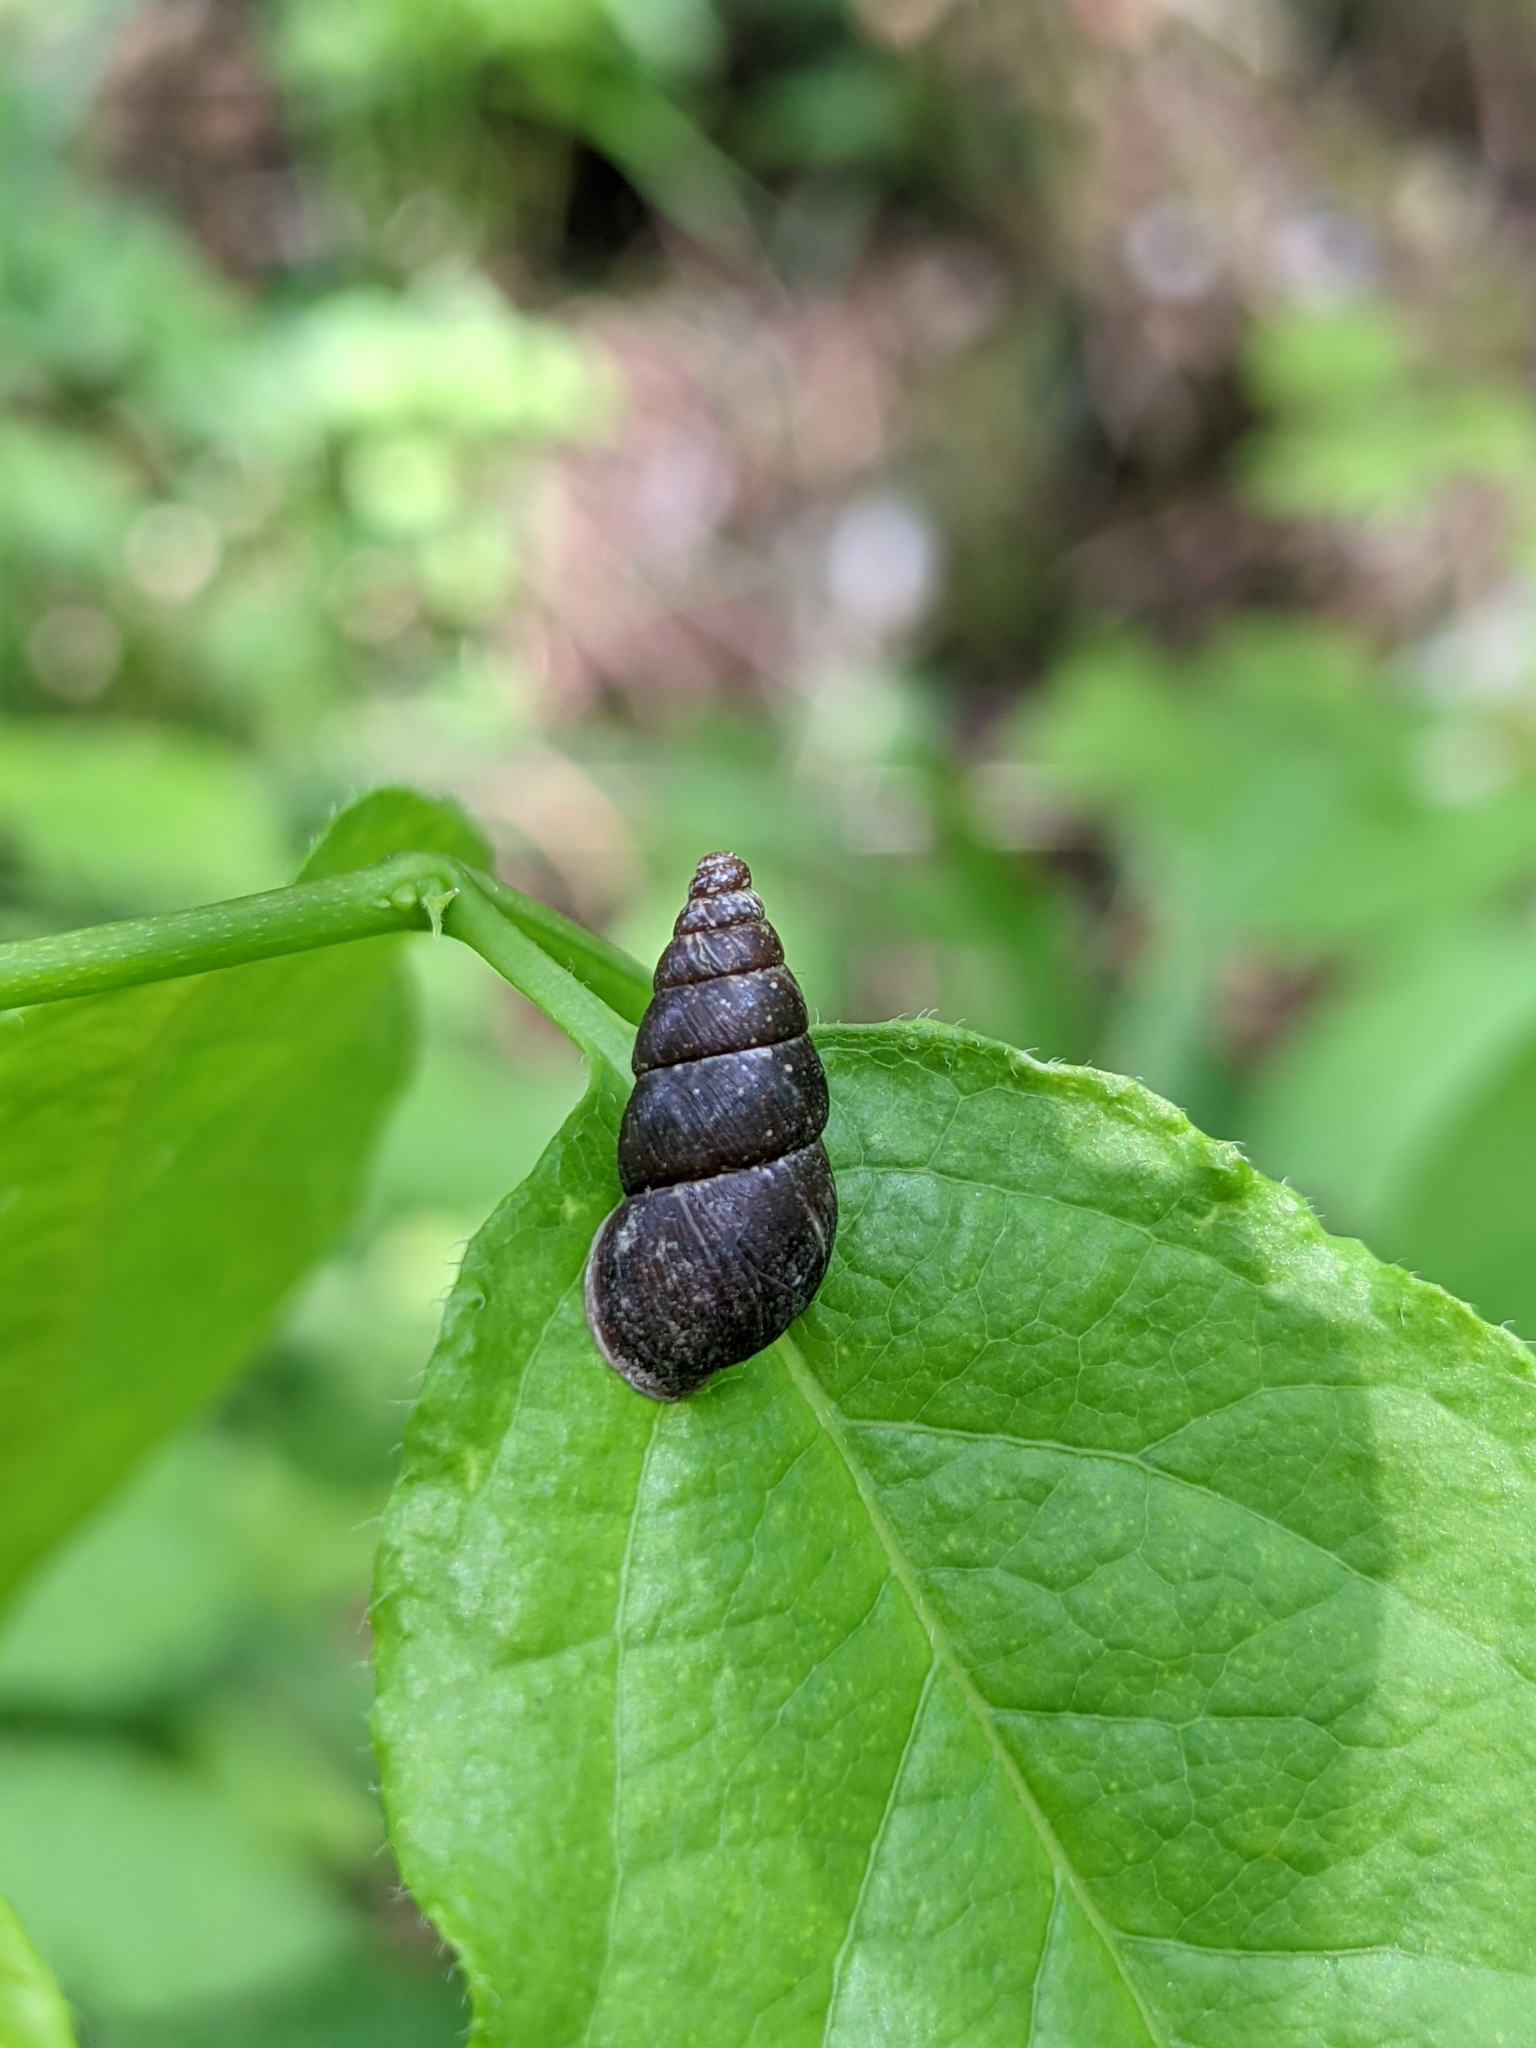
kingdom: Animalia
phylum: Mollusca
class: Gastropoda
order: Stylommatophora
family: Enidae
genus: Ena
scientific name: Ena montana
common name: Mountain bulin
